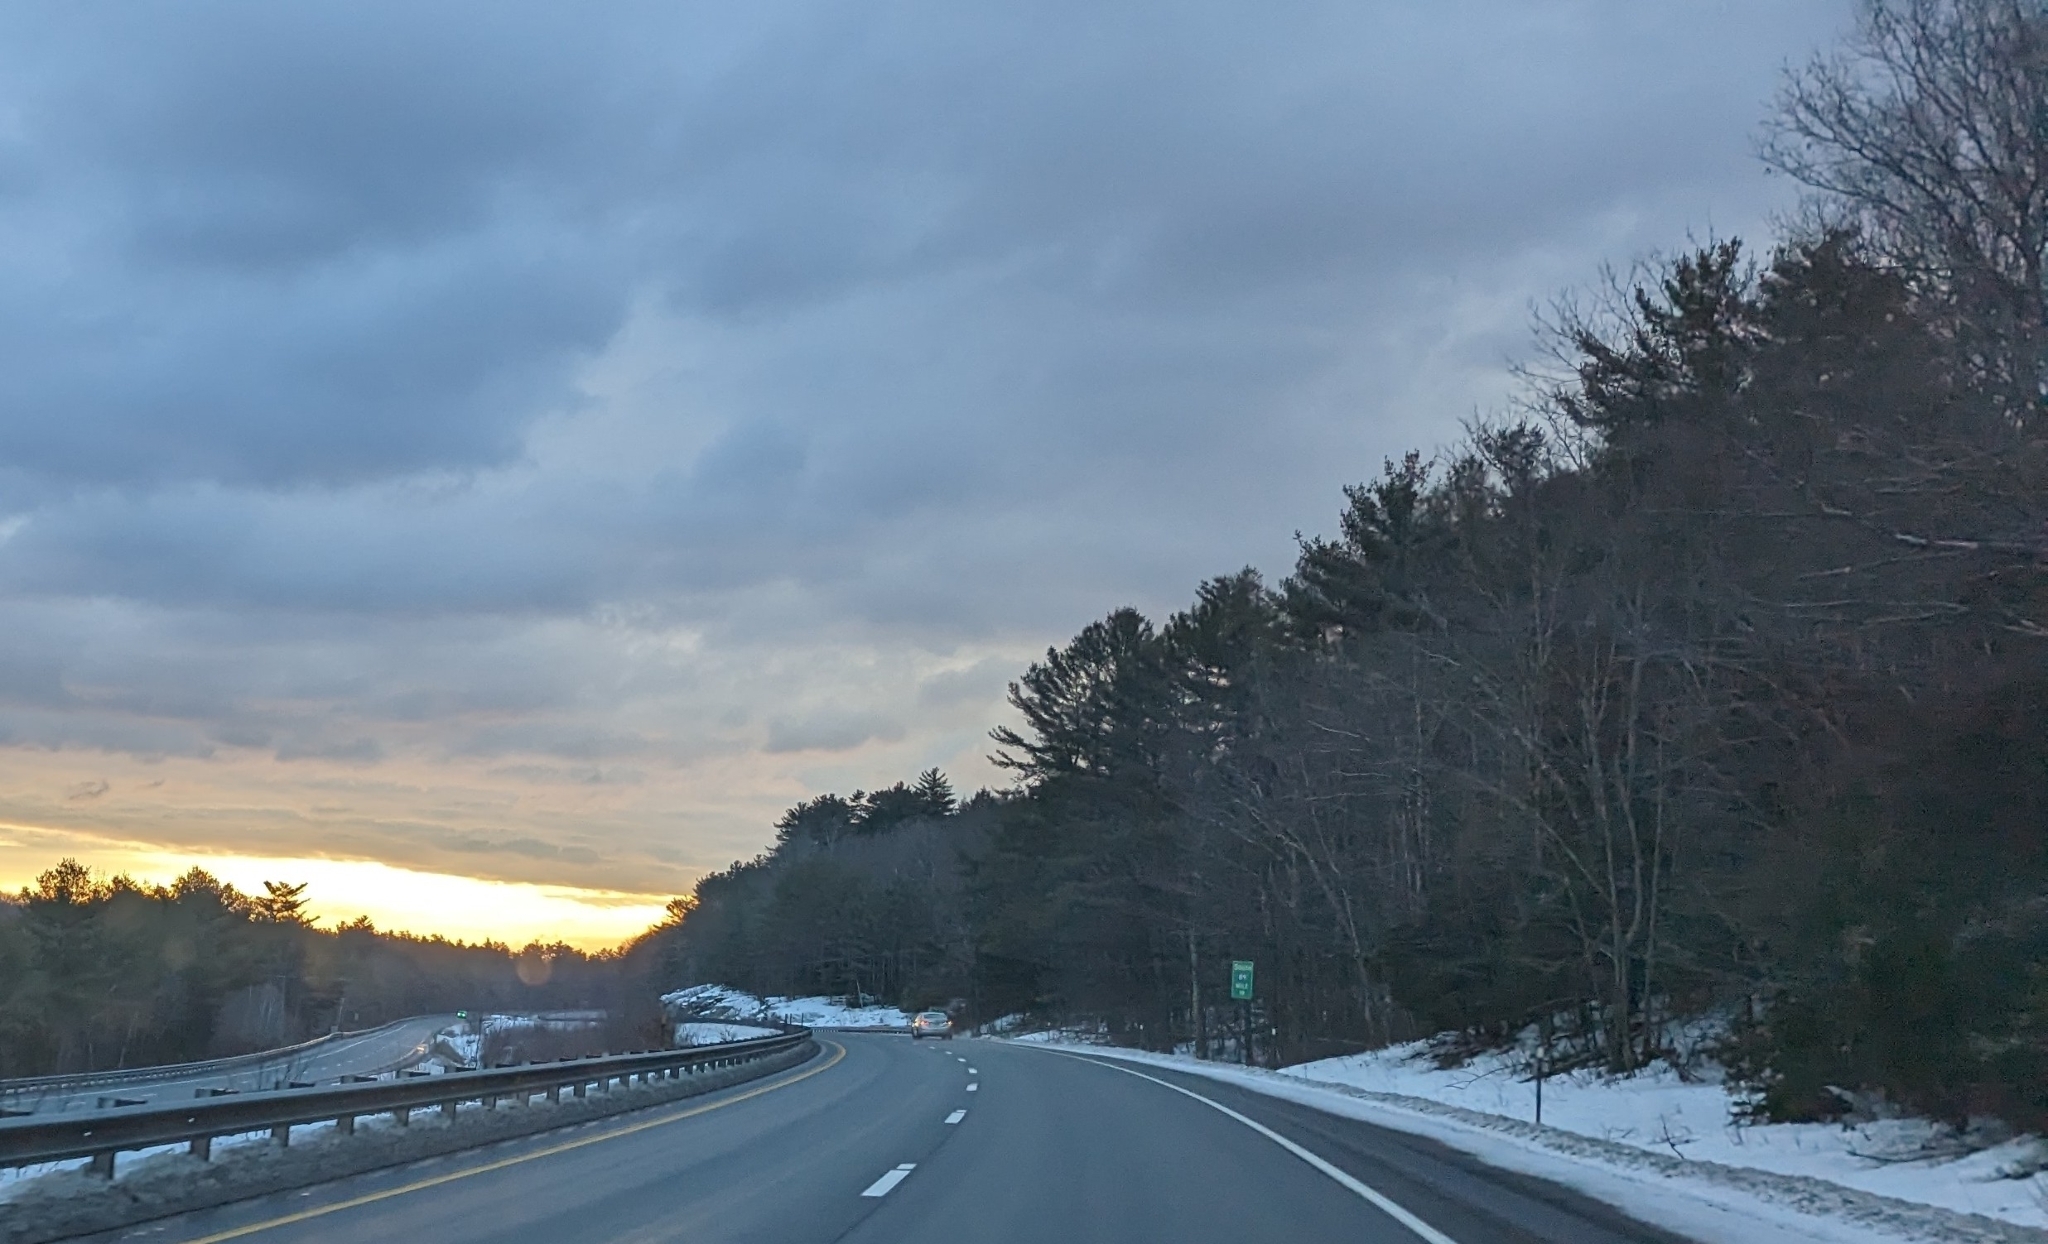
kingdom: Plantae
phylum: Tracheophyta
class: Pinopsida
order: Pinales
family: Pinaceae
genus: Pinus
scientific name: Pinus strobus
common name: Weymouth pine
